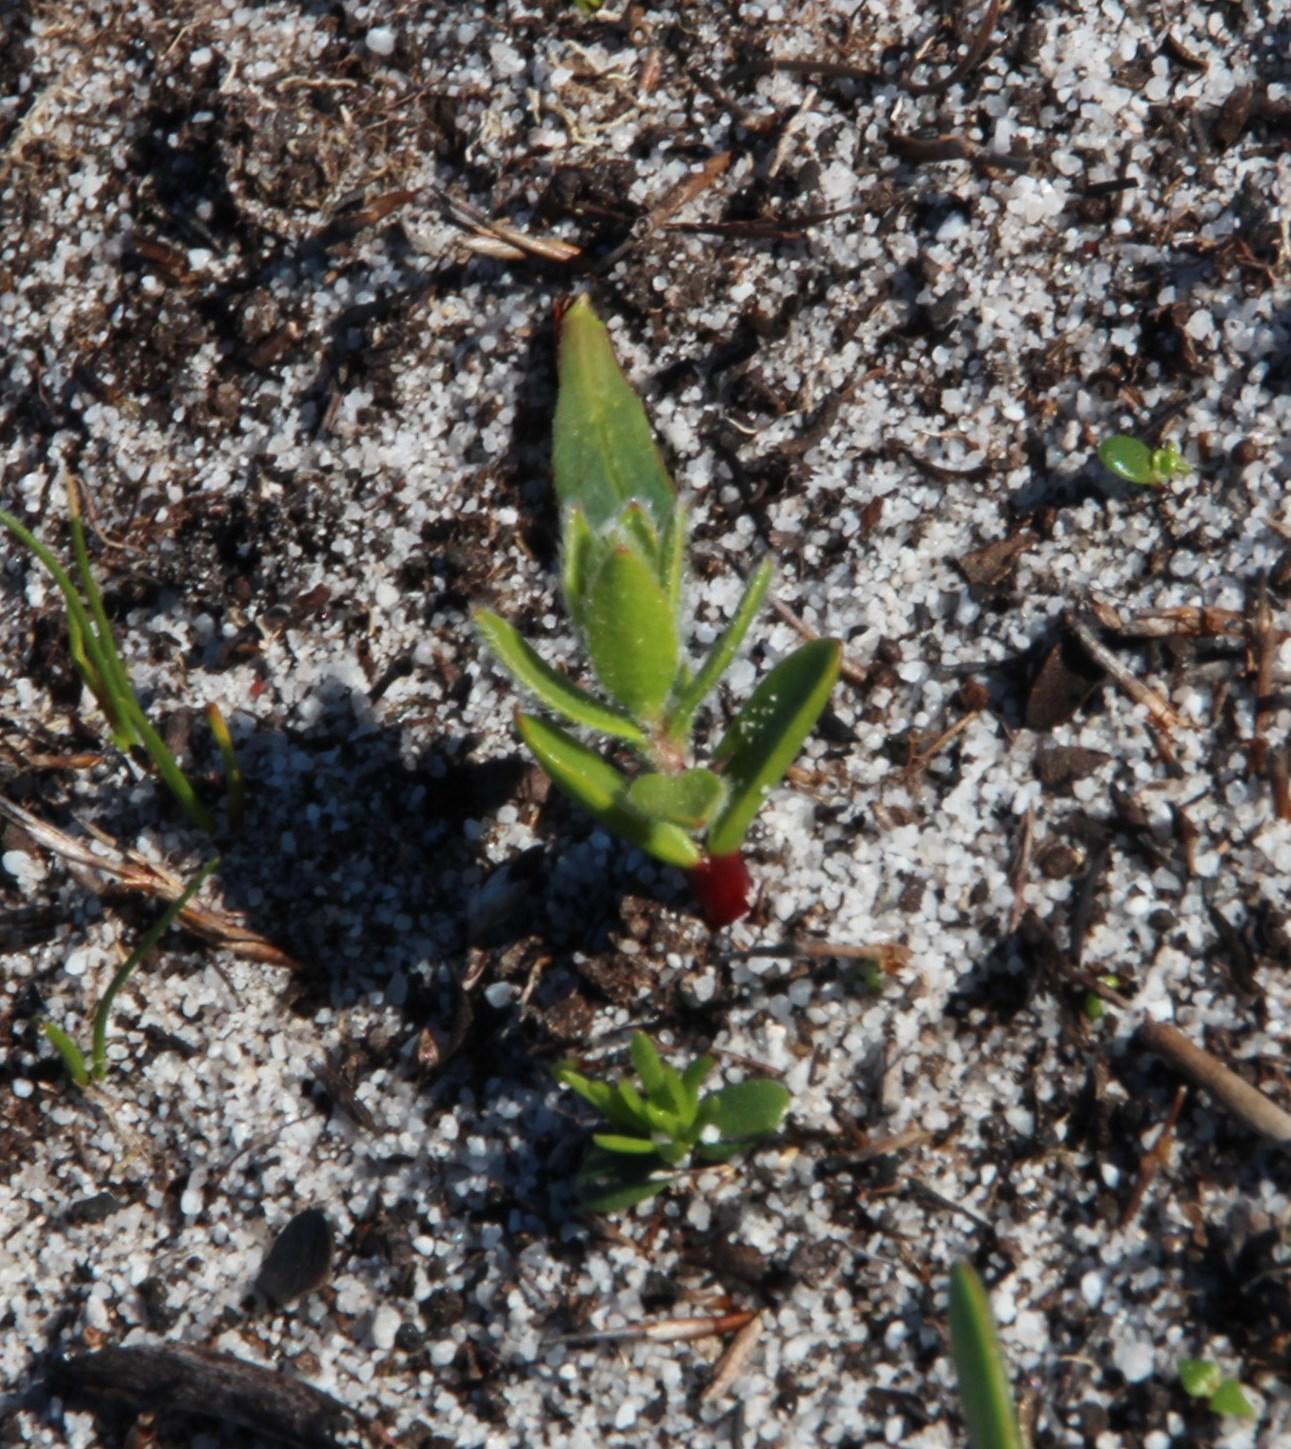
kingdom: Plantae
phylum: Tracheophyta
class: Magnoliopsida
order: Proteales
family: Proteaceae
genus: Diastella
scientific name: Diastella divaricata
